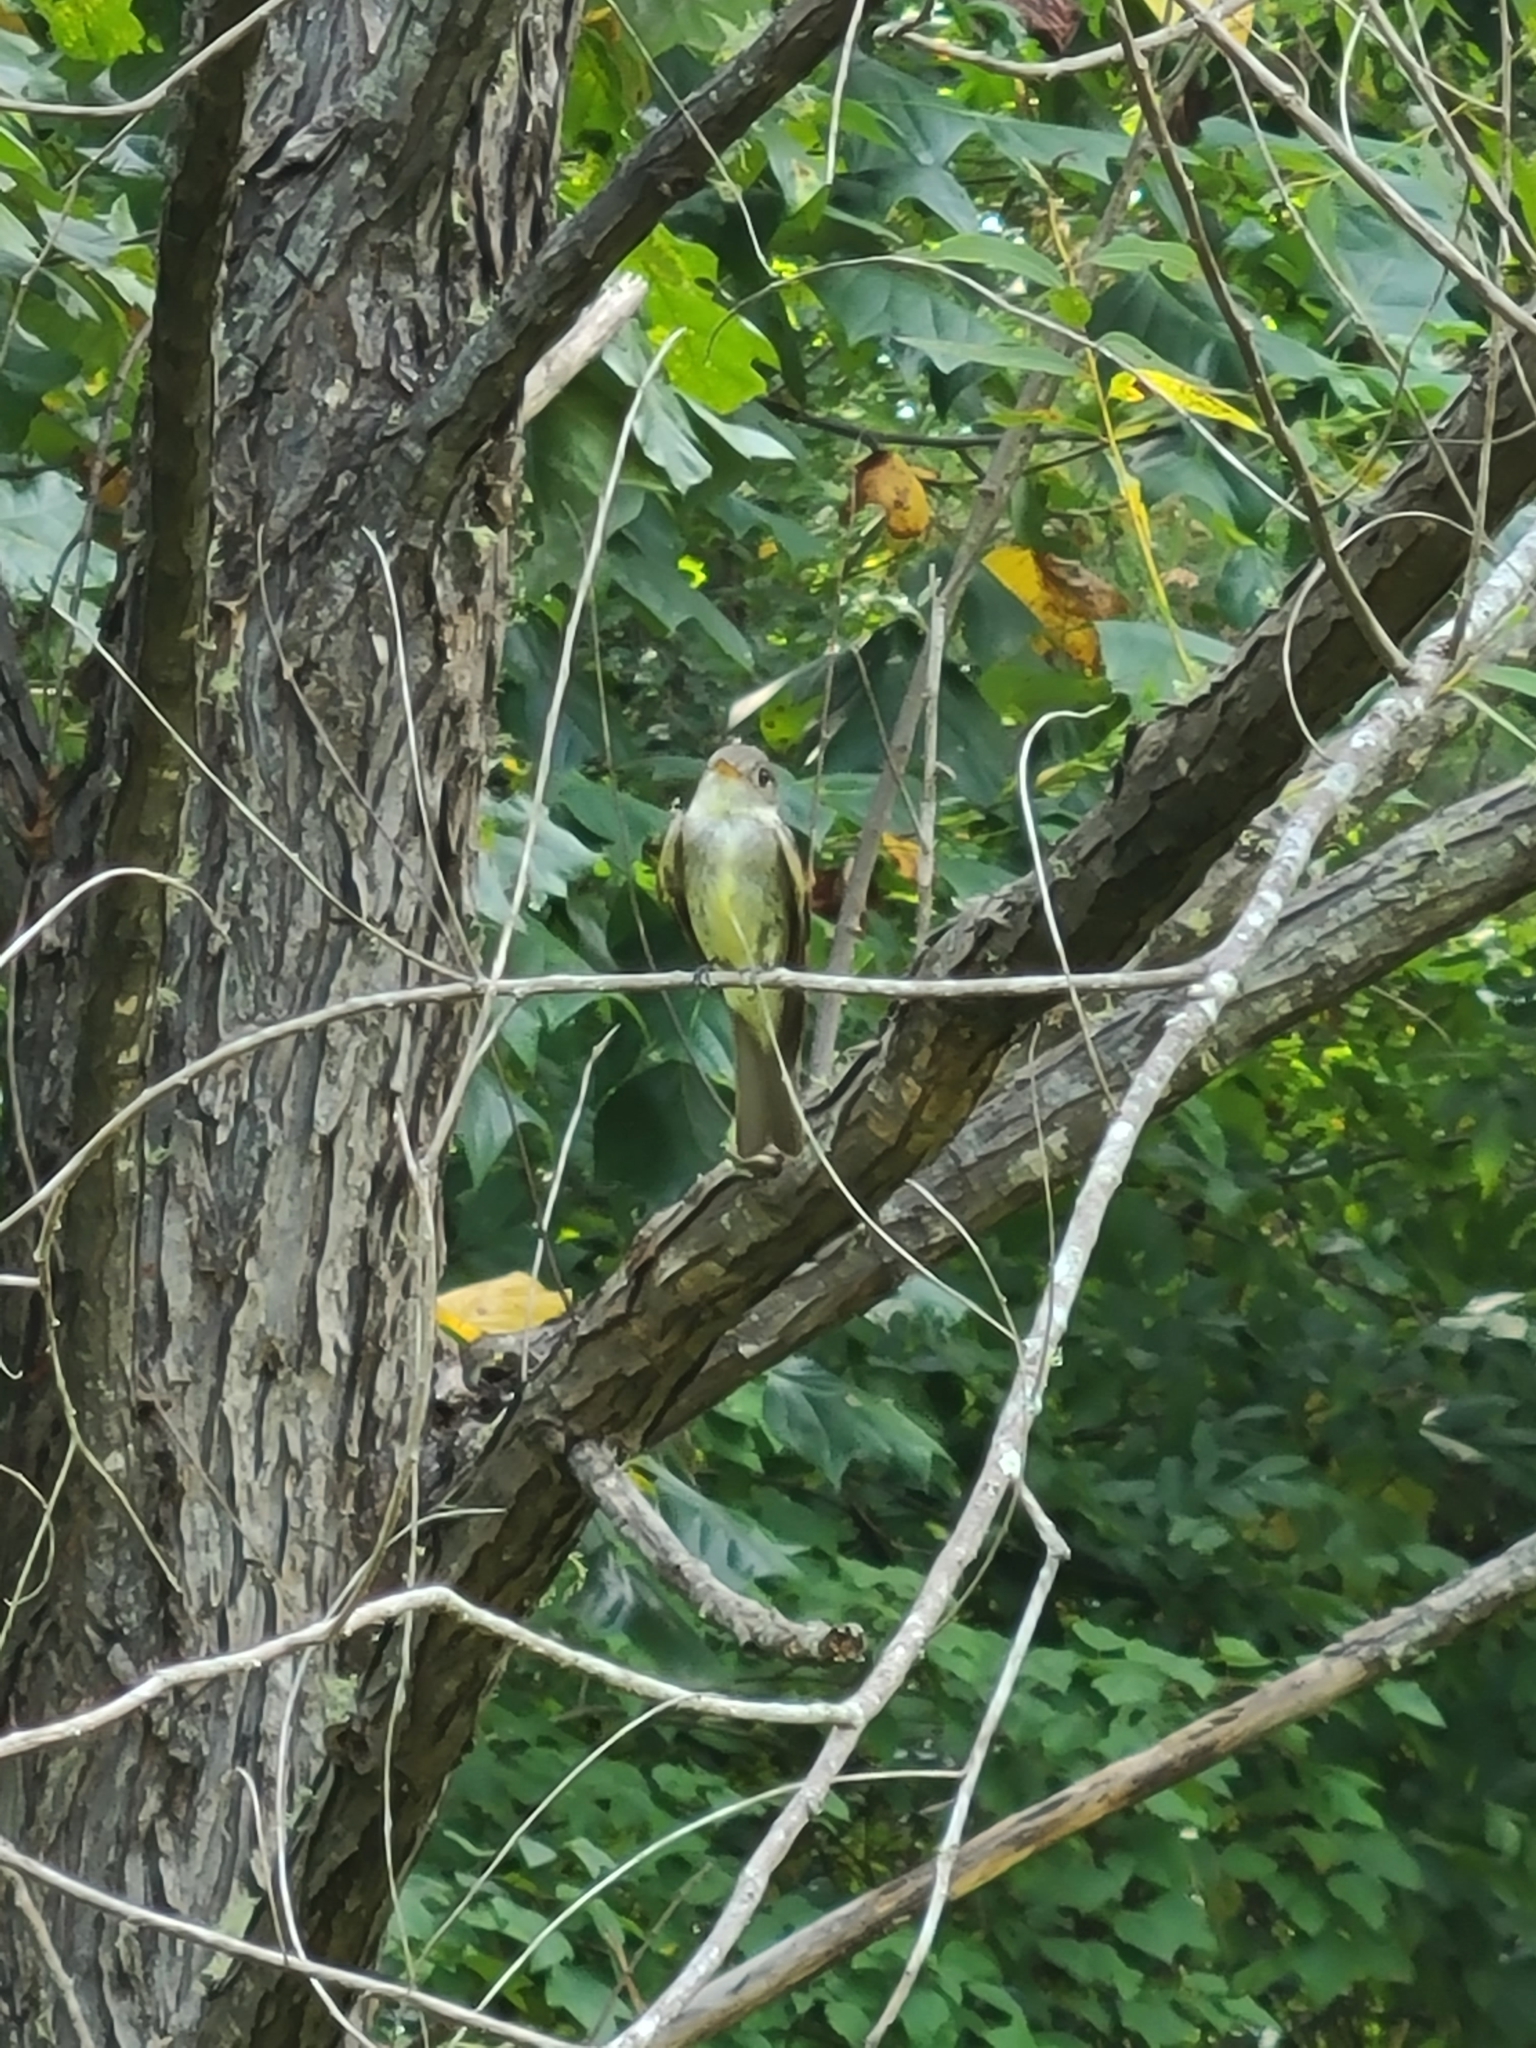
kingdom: Animalia
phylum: Chordata
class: Aves
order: Passeriformes
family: Tyrannidae
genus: Contopus
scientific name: Contopus virens
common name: Eastern wood-pewee
